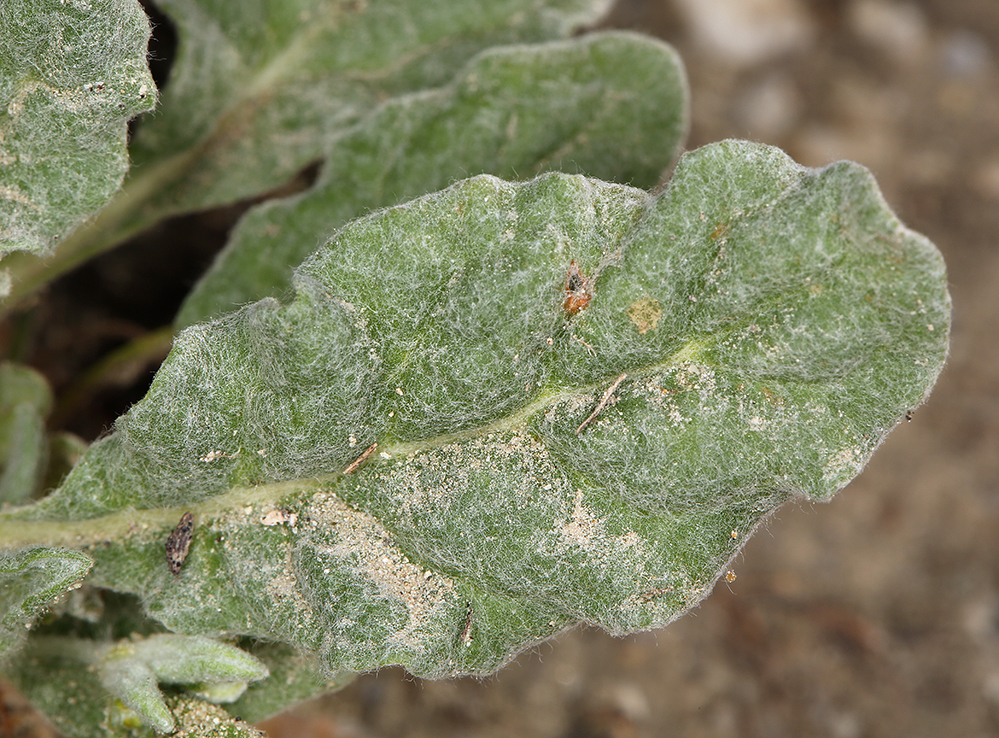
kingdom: Plantae
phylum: Tracheophyta
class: Magnoliopsida
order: Caryophyllales
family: Polygonaceae
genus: Eriogonum
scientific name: Eriogonum gossypinum
